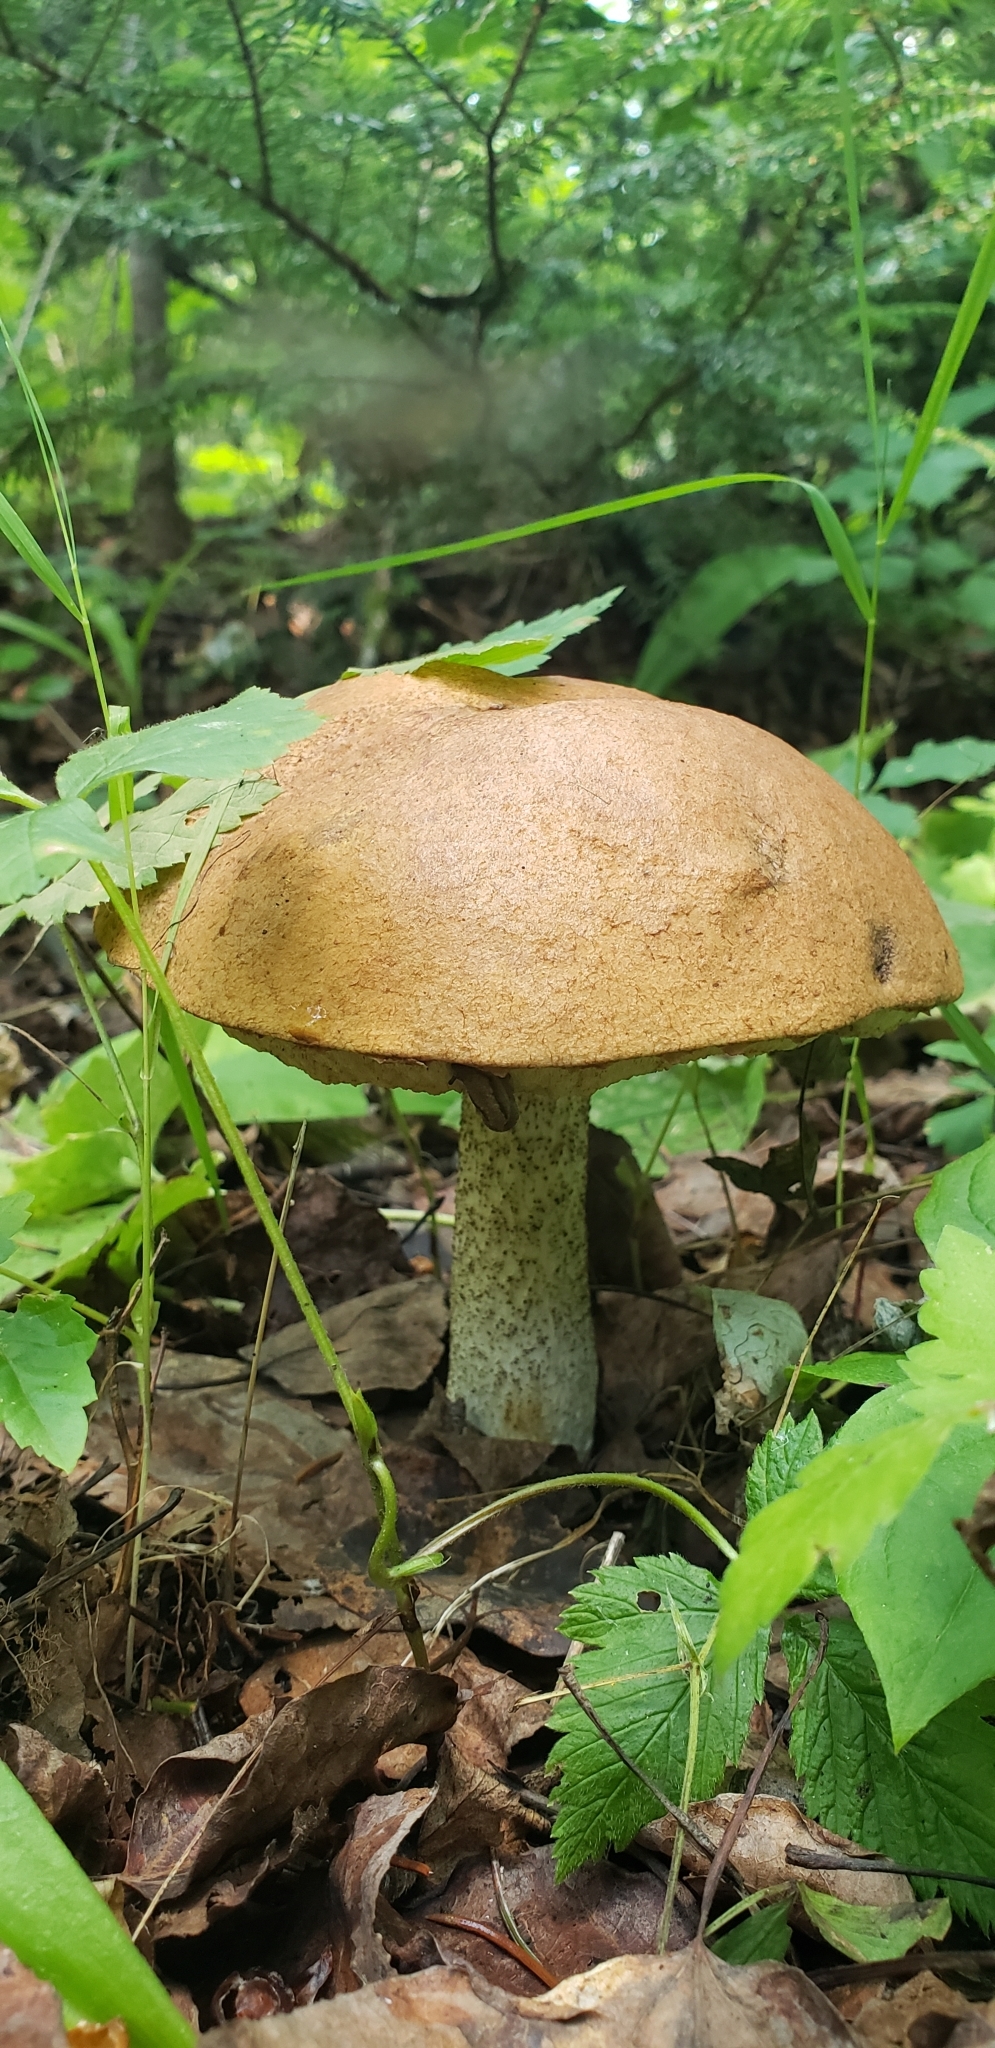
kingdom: Fungi
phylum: Basidiomycota
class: Agaricomycetes
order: Boletales
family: Boletaceae
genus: Leccinum
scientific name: Leccinum aurantiacum
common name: Orange bolete
